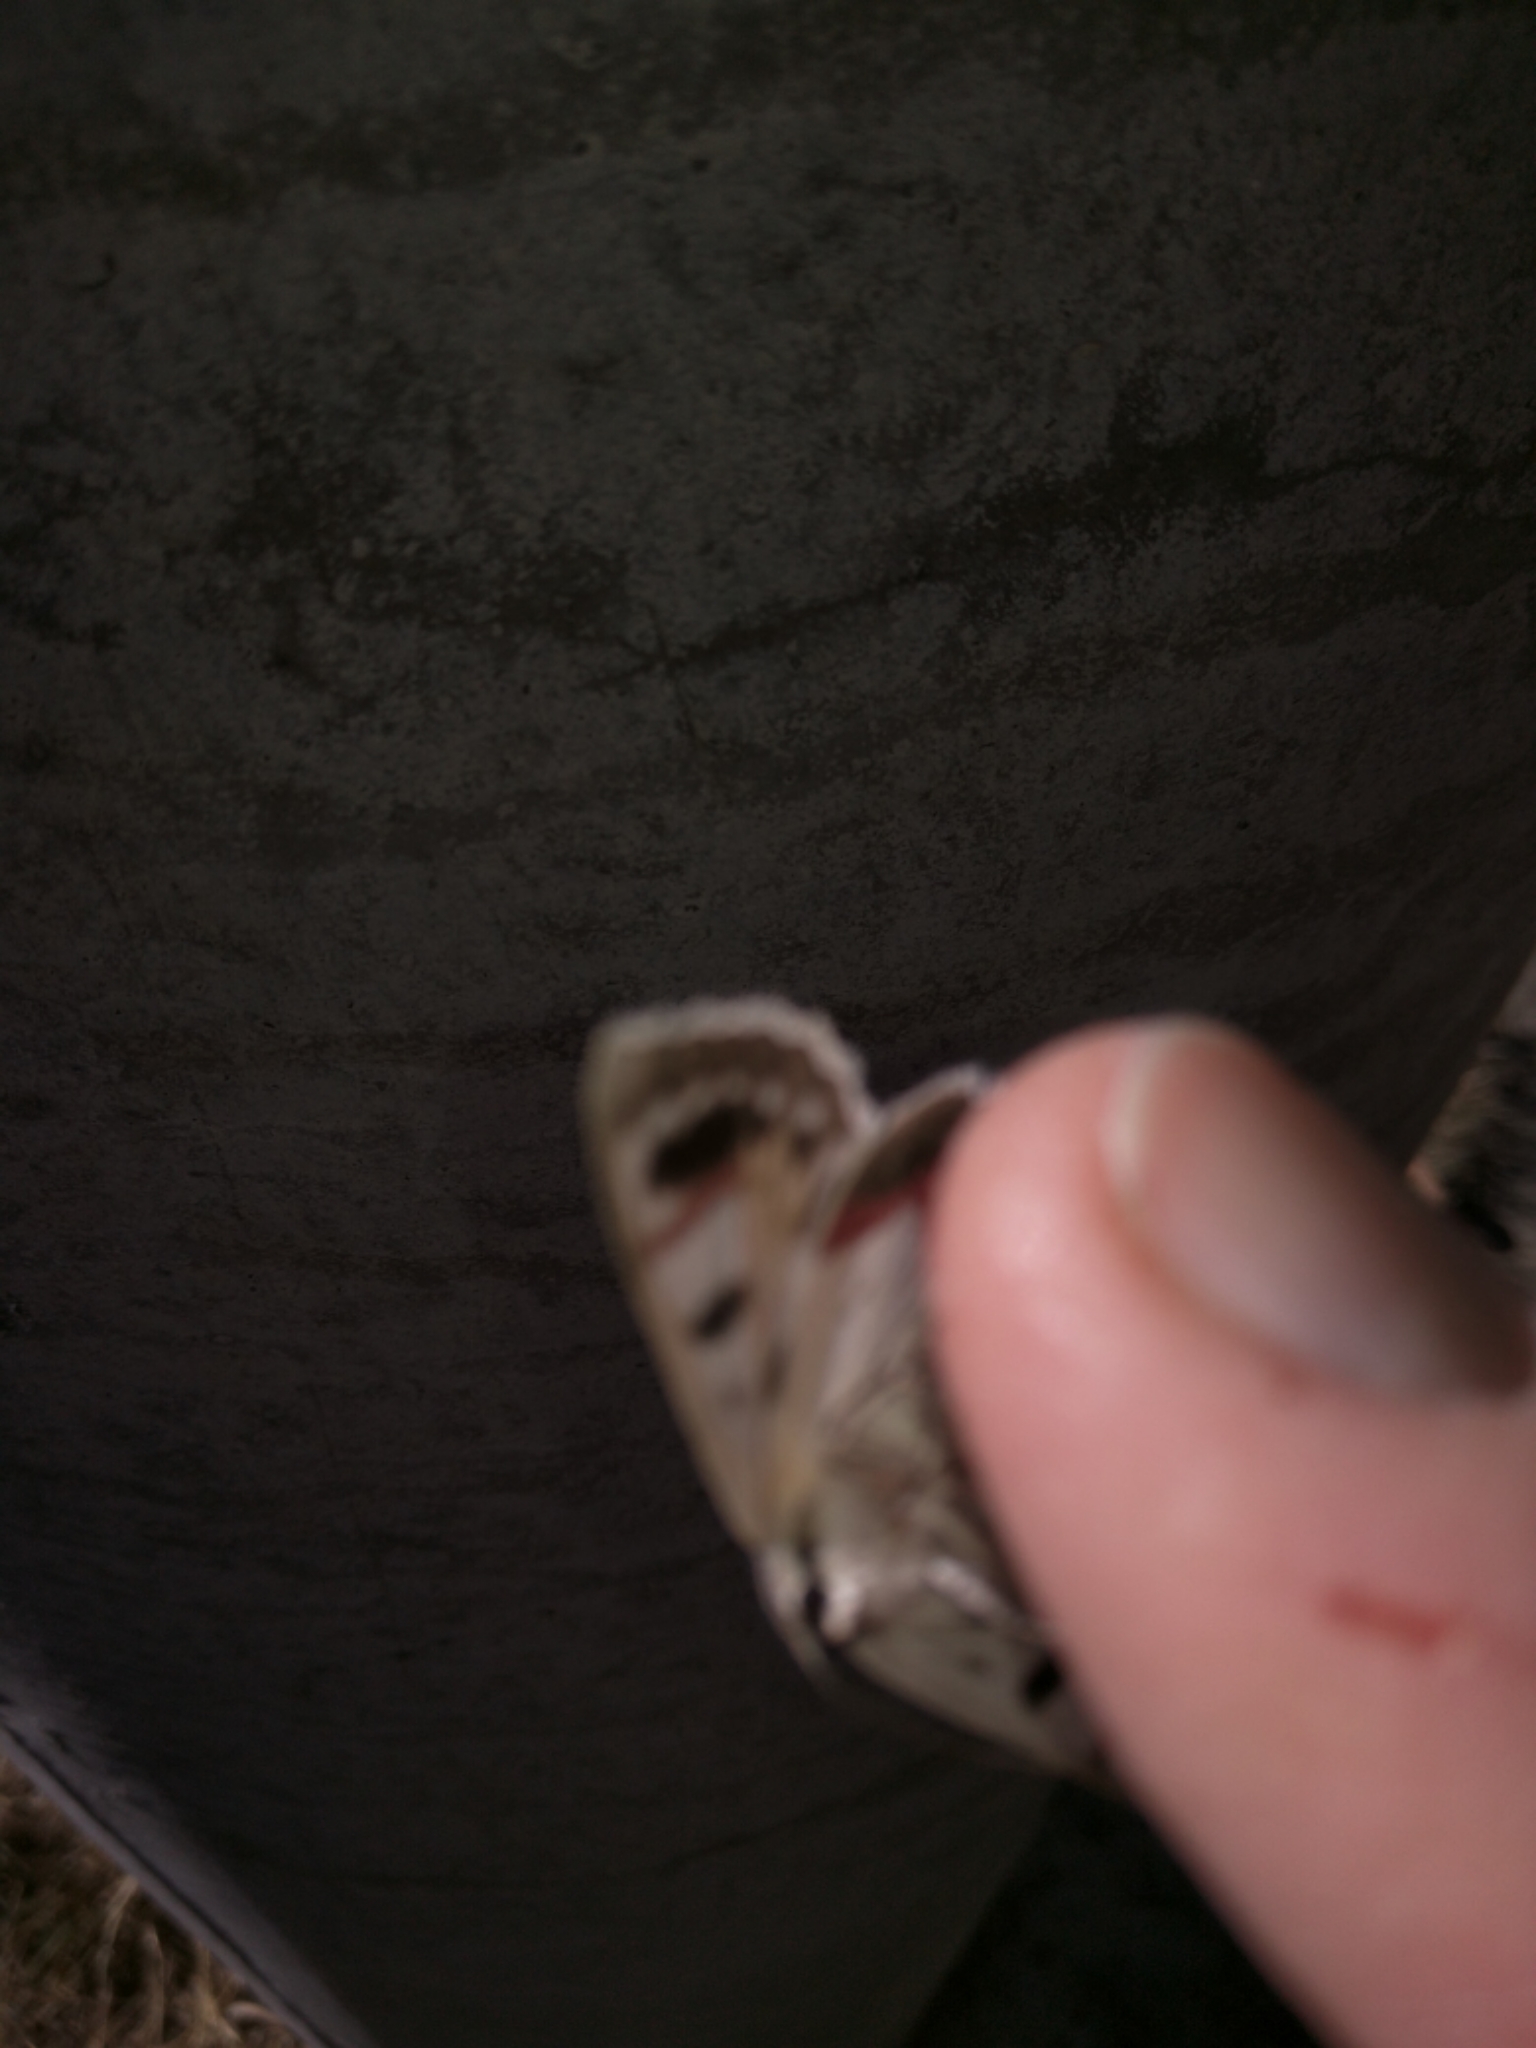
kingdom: Animalia
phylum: Arthropoda
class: Insecta
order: Lepidoptera
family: Geometridae
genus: Crypsiphona
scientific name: Crypsiphona ocultaria
